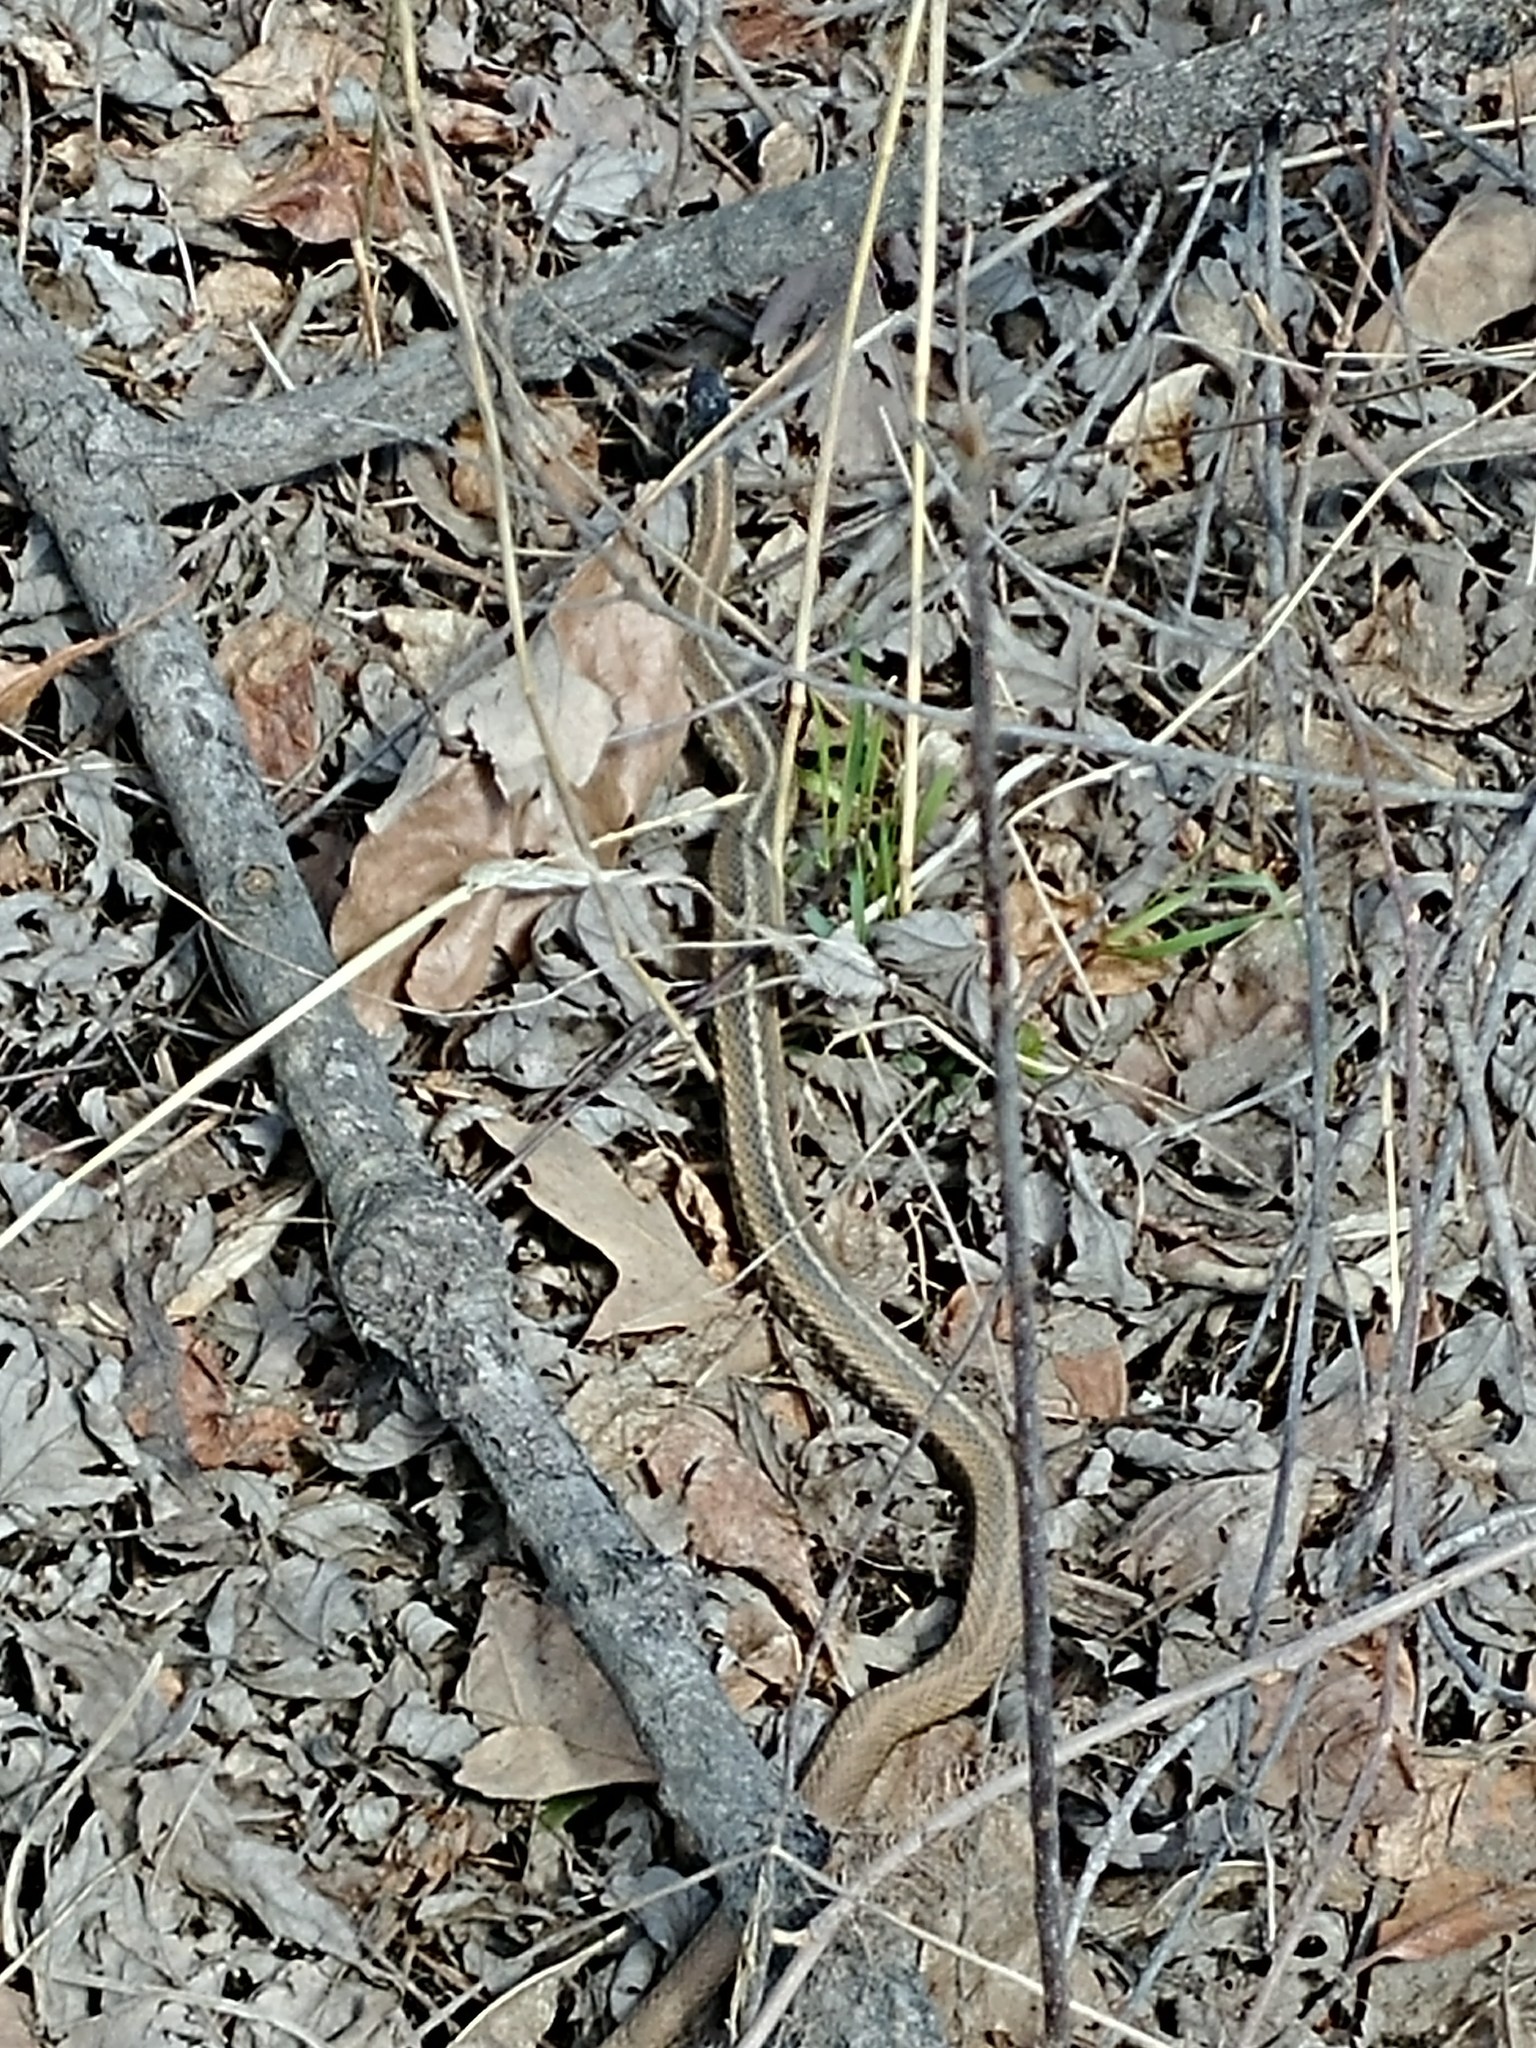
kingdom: Animalia
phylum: Chordata
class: Squamata
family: Colubridae
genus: Thamnophis
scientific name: Thamnophis sirtalis
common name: Common garter snake
